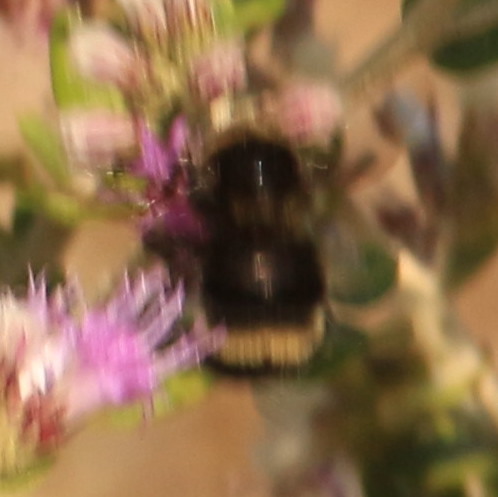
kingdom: Animalia
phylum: Arthropoda
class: Insecta
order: Hymenoptera
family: Apidae
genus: Bombus
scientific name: Bombus pauloensis
